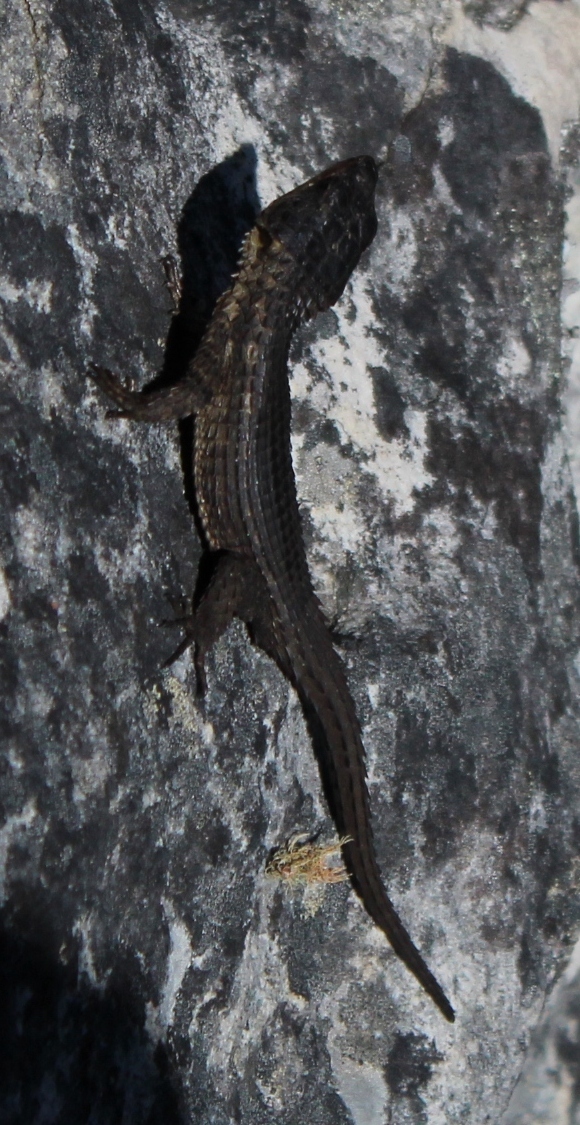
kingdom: Animalia
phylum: Chordata
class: Squamata
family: Cordylidae
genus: Cordylus
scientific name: Cordylus niger
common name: Black girdled lizard
